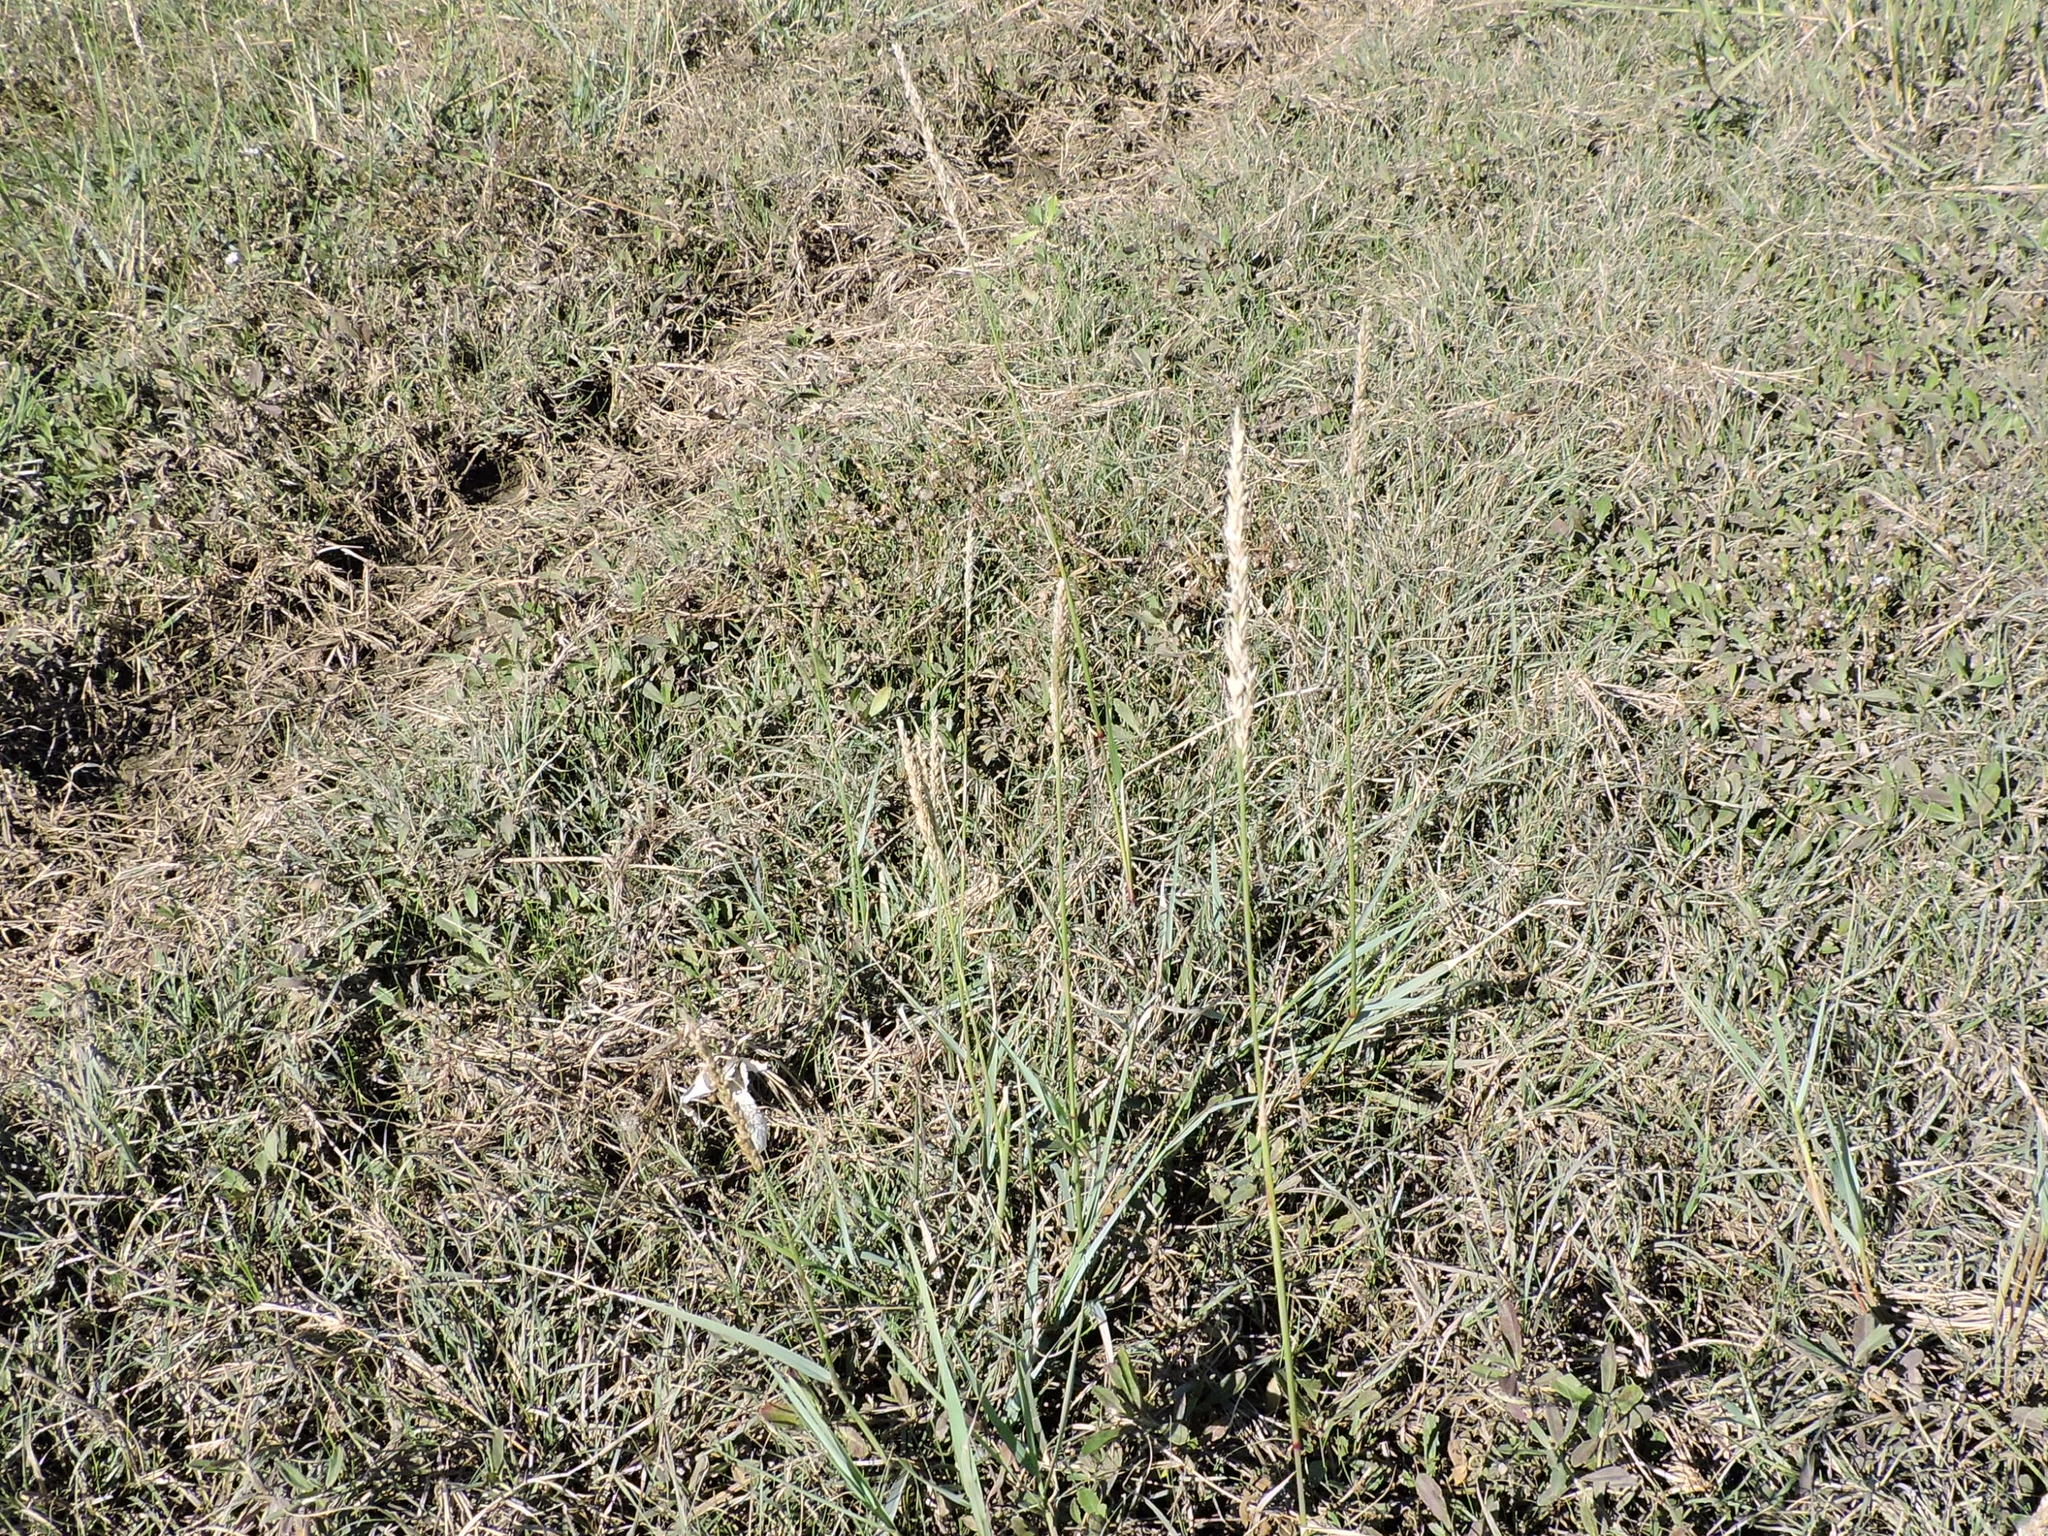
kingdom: Plantae
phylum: Tracheophyta
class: Liliopsida
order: Poales
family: Poaceae
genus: Tridens
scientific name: Tridens albescens
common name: White tridens
